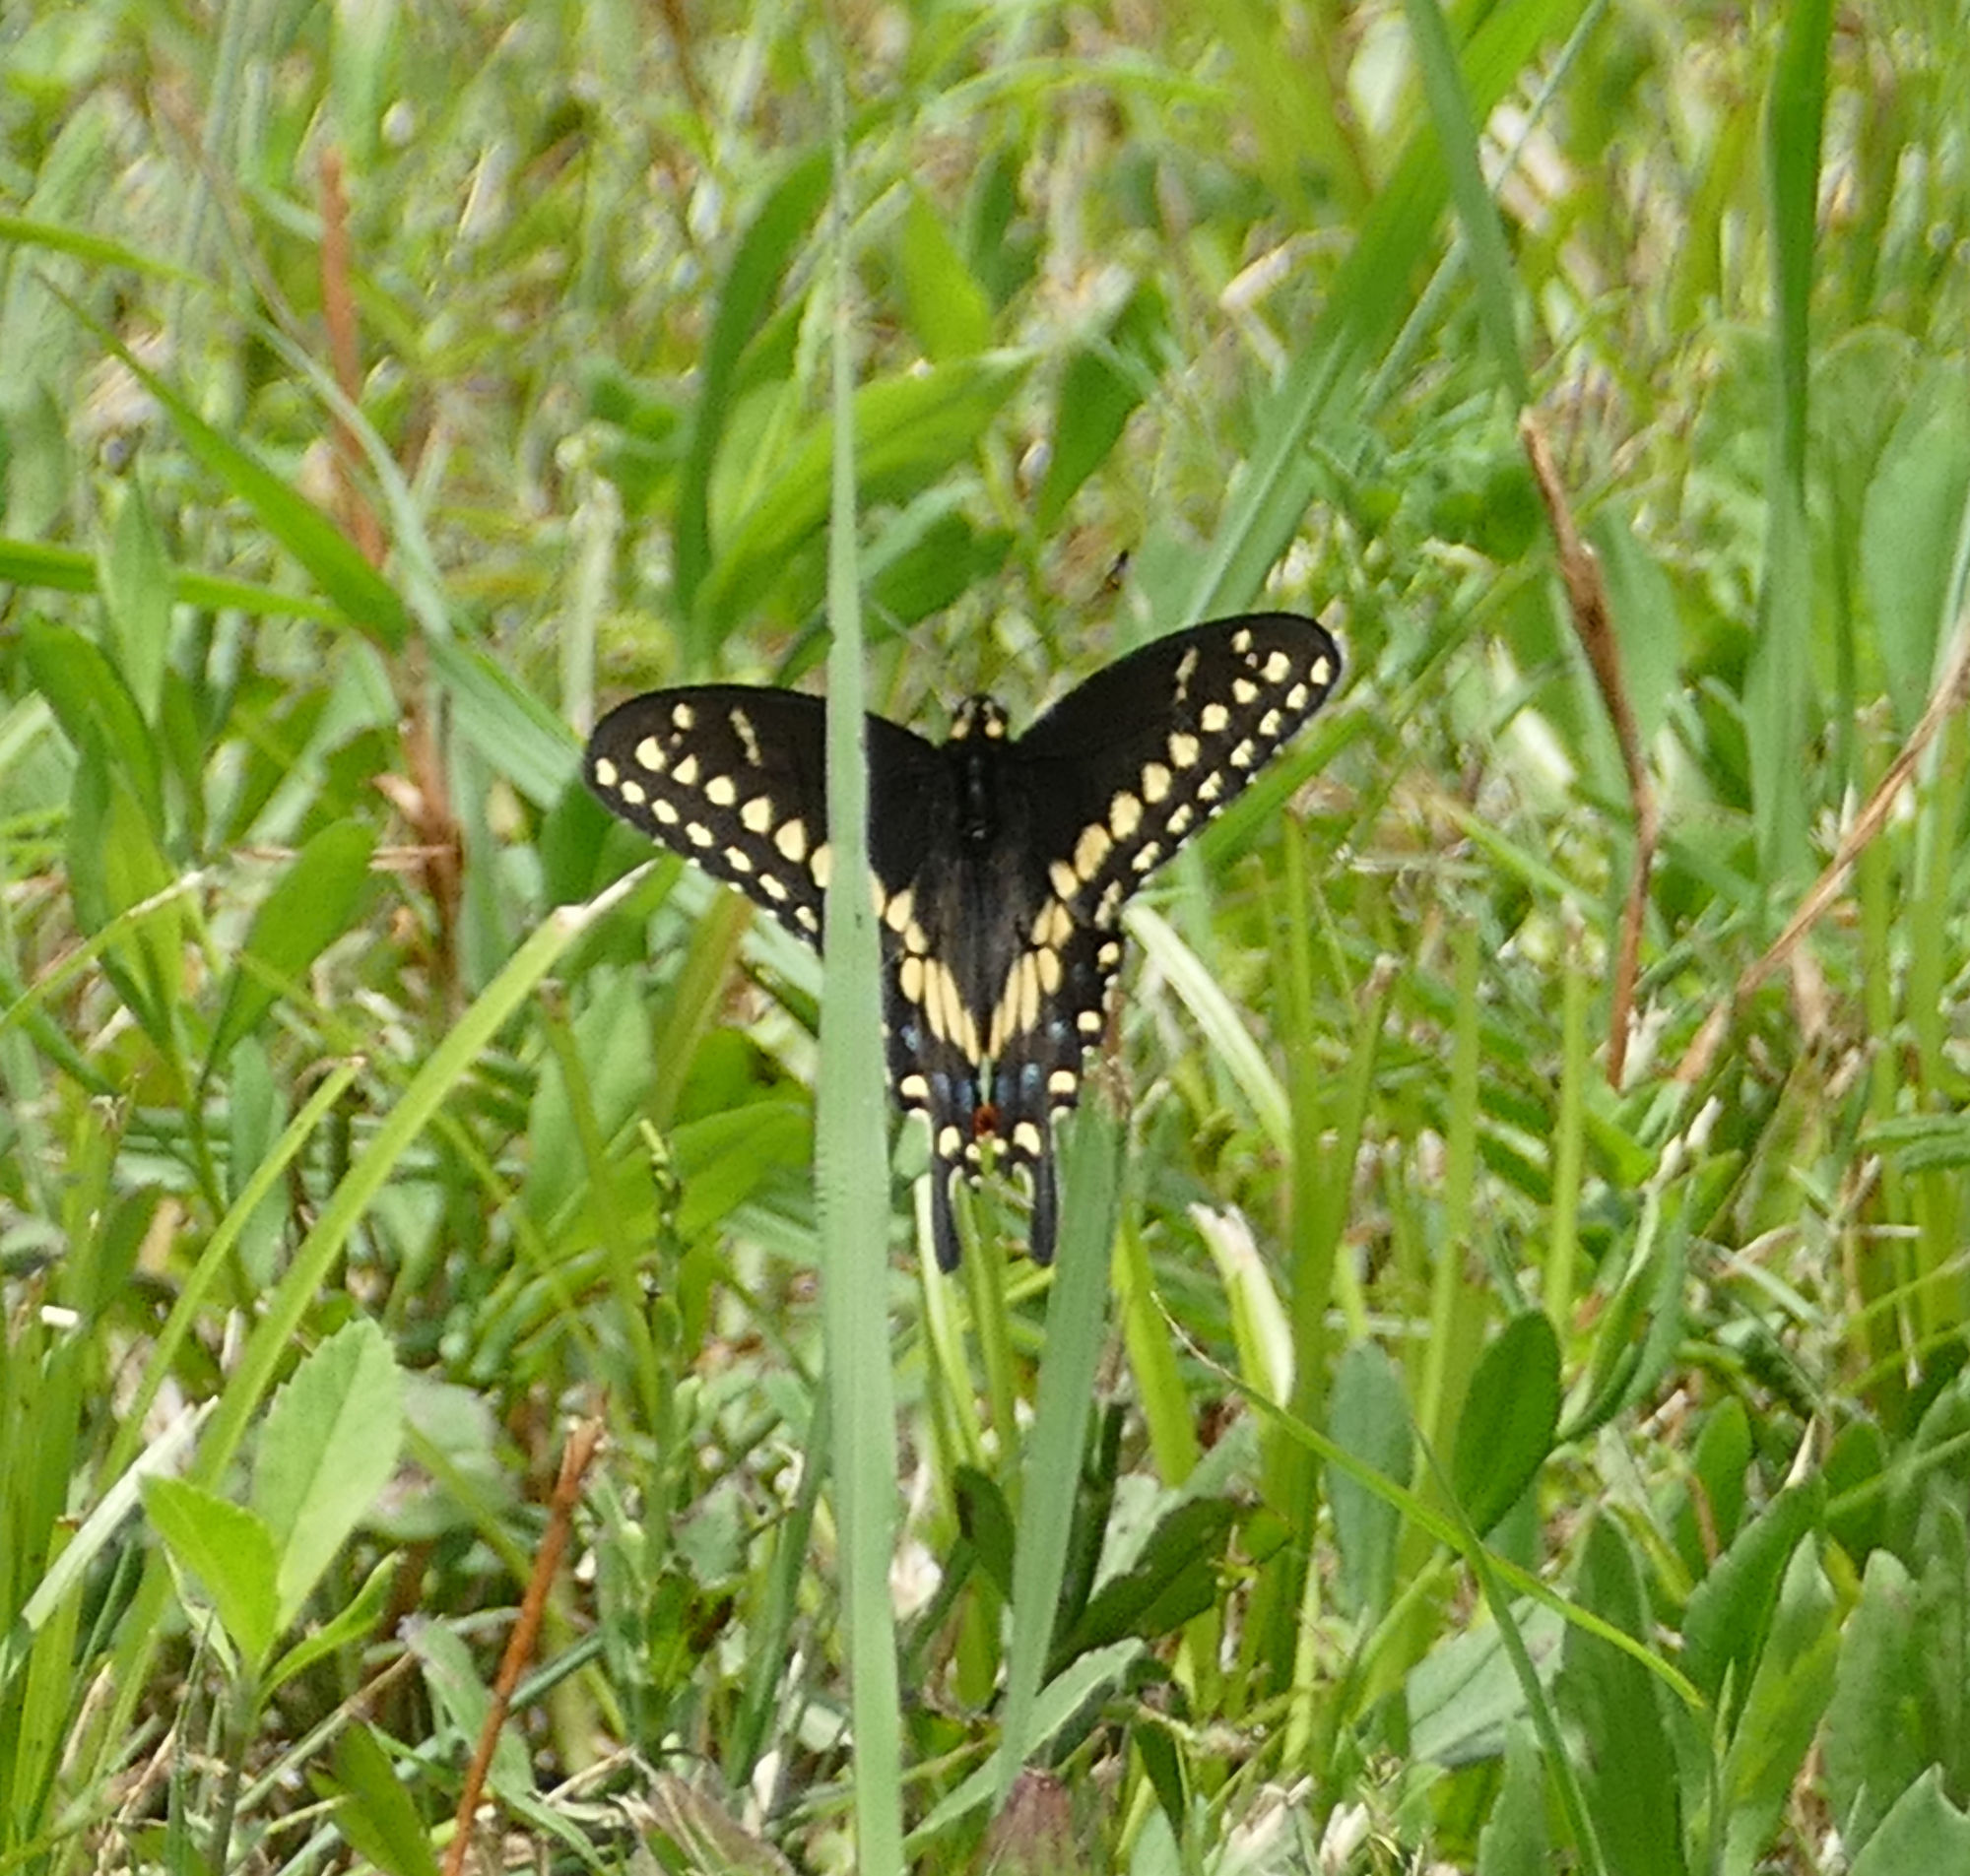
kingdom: Animalia
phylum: Arthropoda
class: Insecta
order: Lepidoptera
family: Papilionidae
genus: Papilio
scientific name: Papilio polyxenes
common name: Black swallowtail
